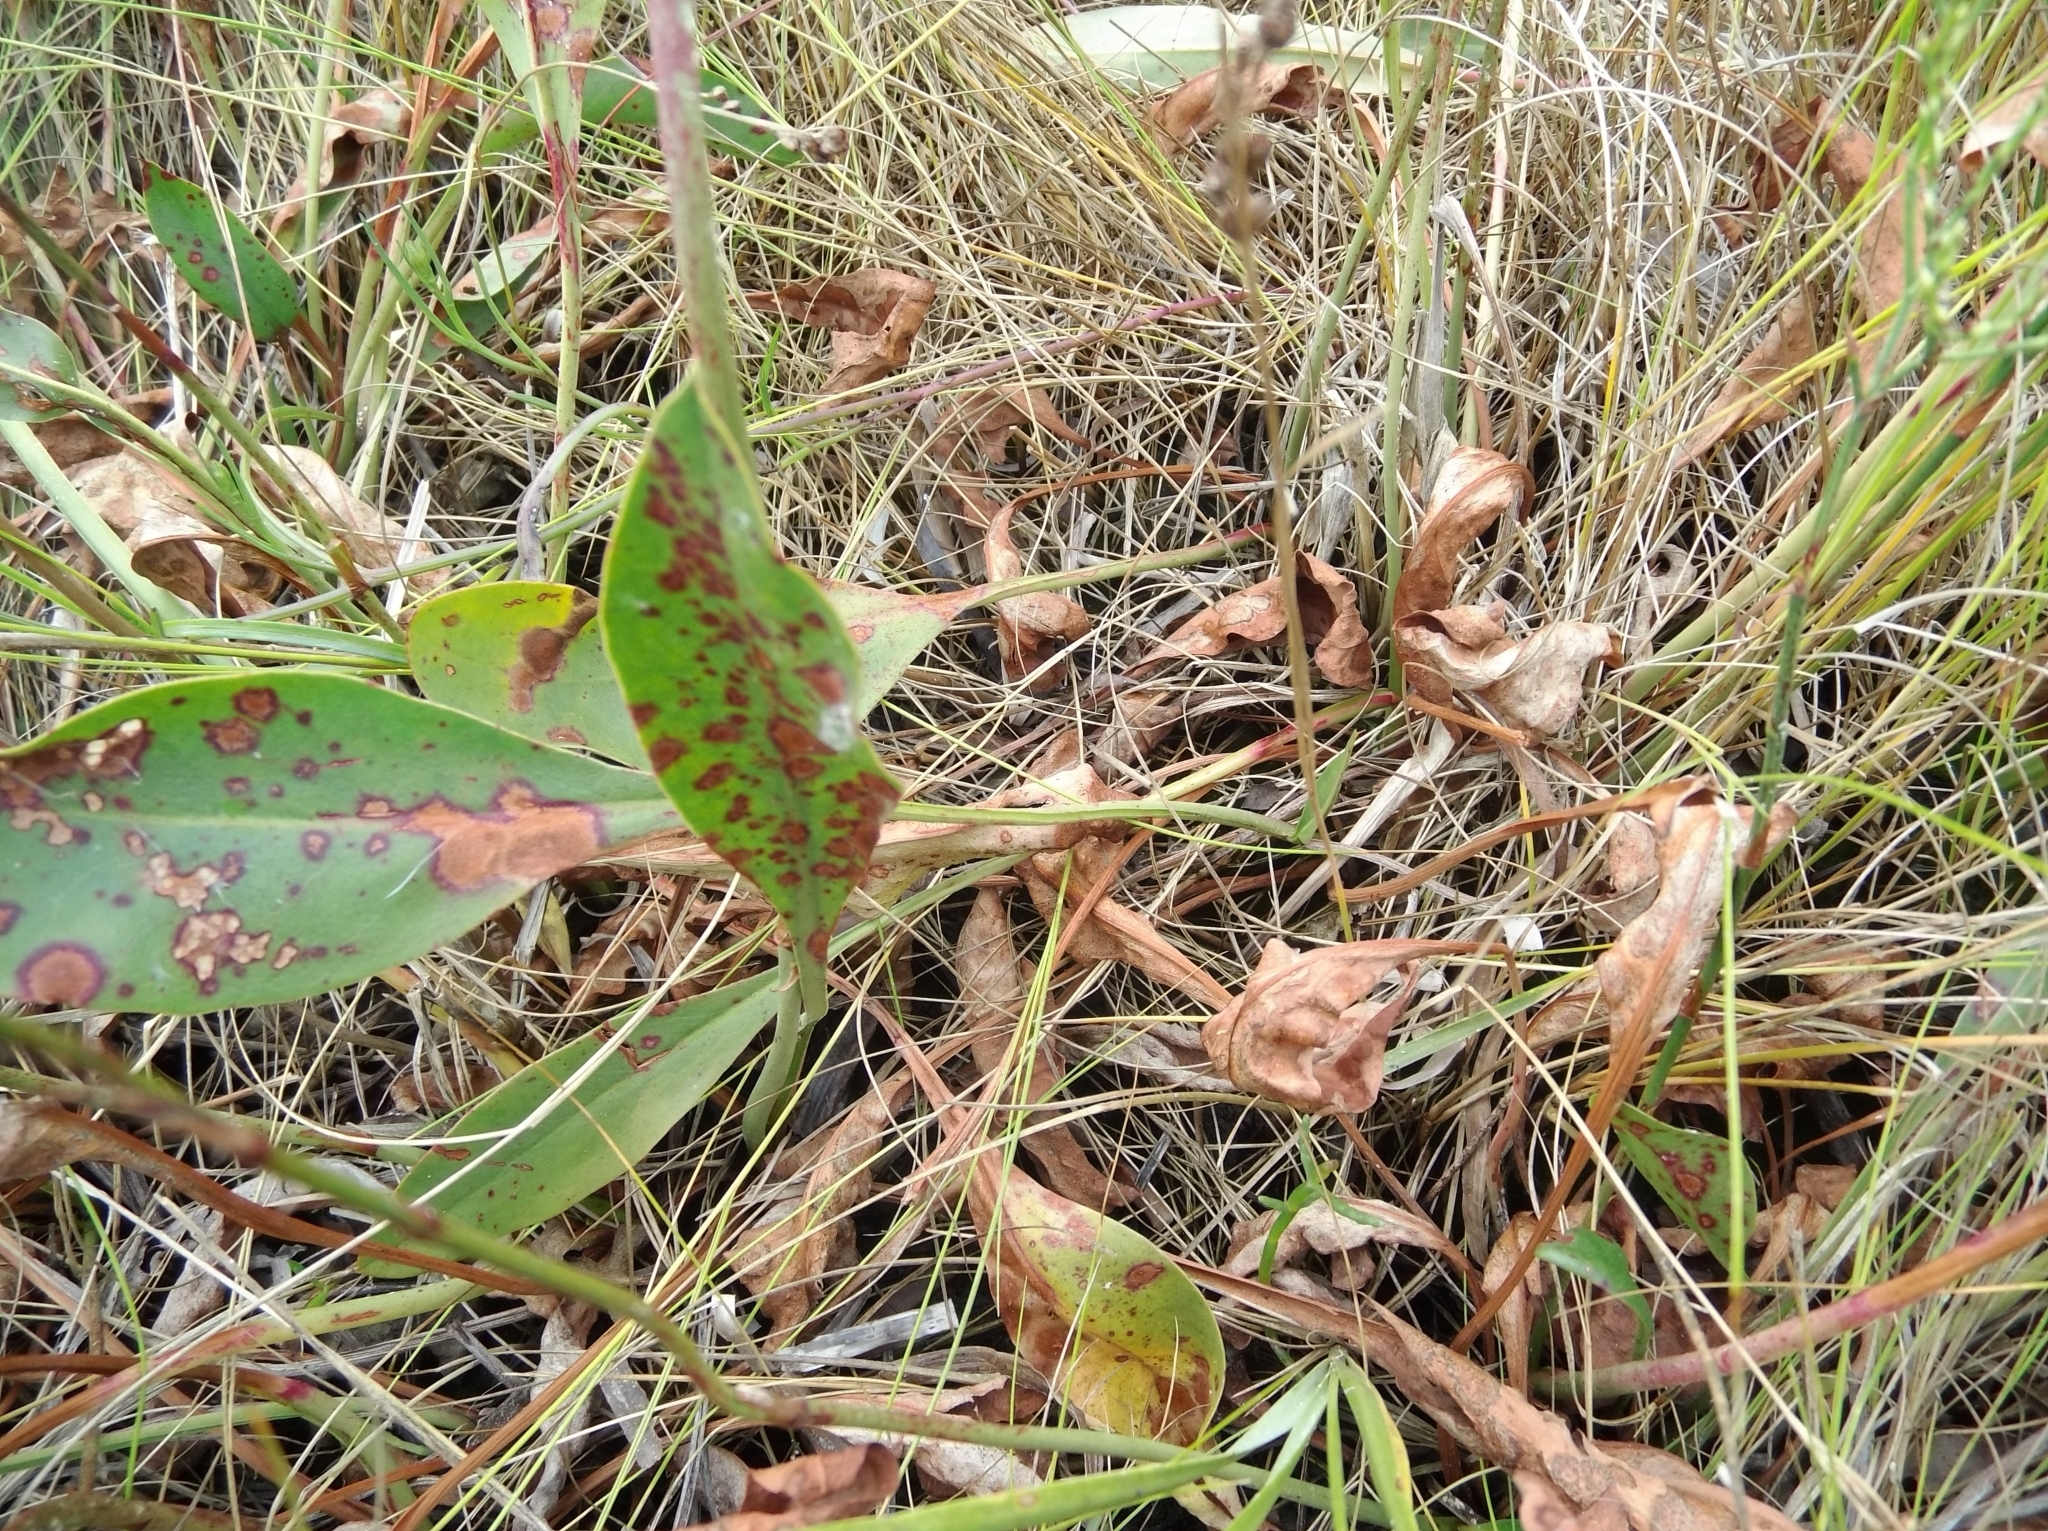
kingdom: Plantae
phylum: Tracheophyta
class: Magnoliopsida
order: Caryophyllales
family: Plumbaginaceae
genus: Limonium
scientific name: Limonium carolinianum
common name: Carolina sea lavender
